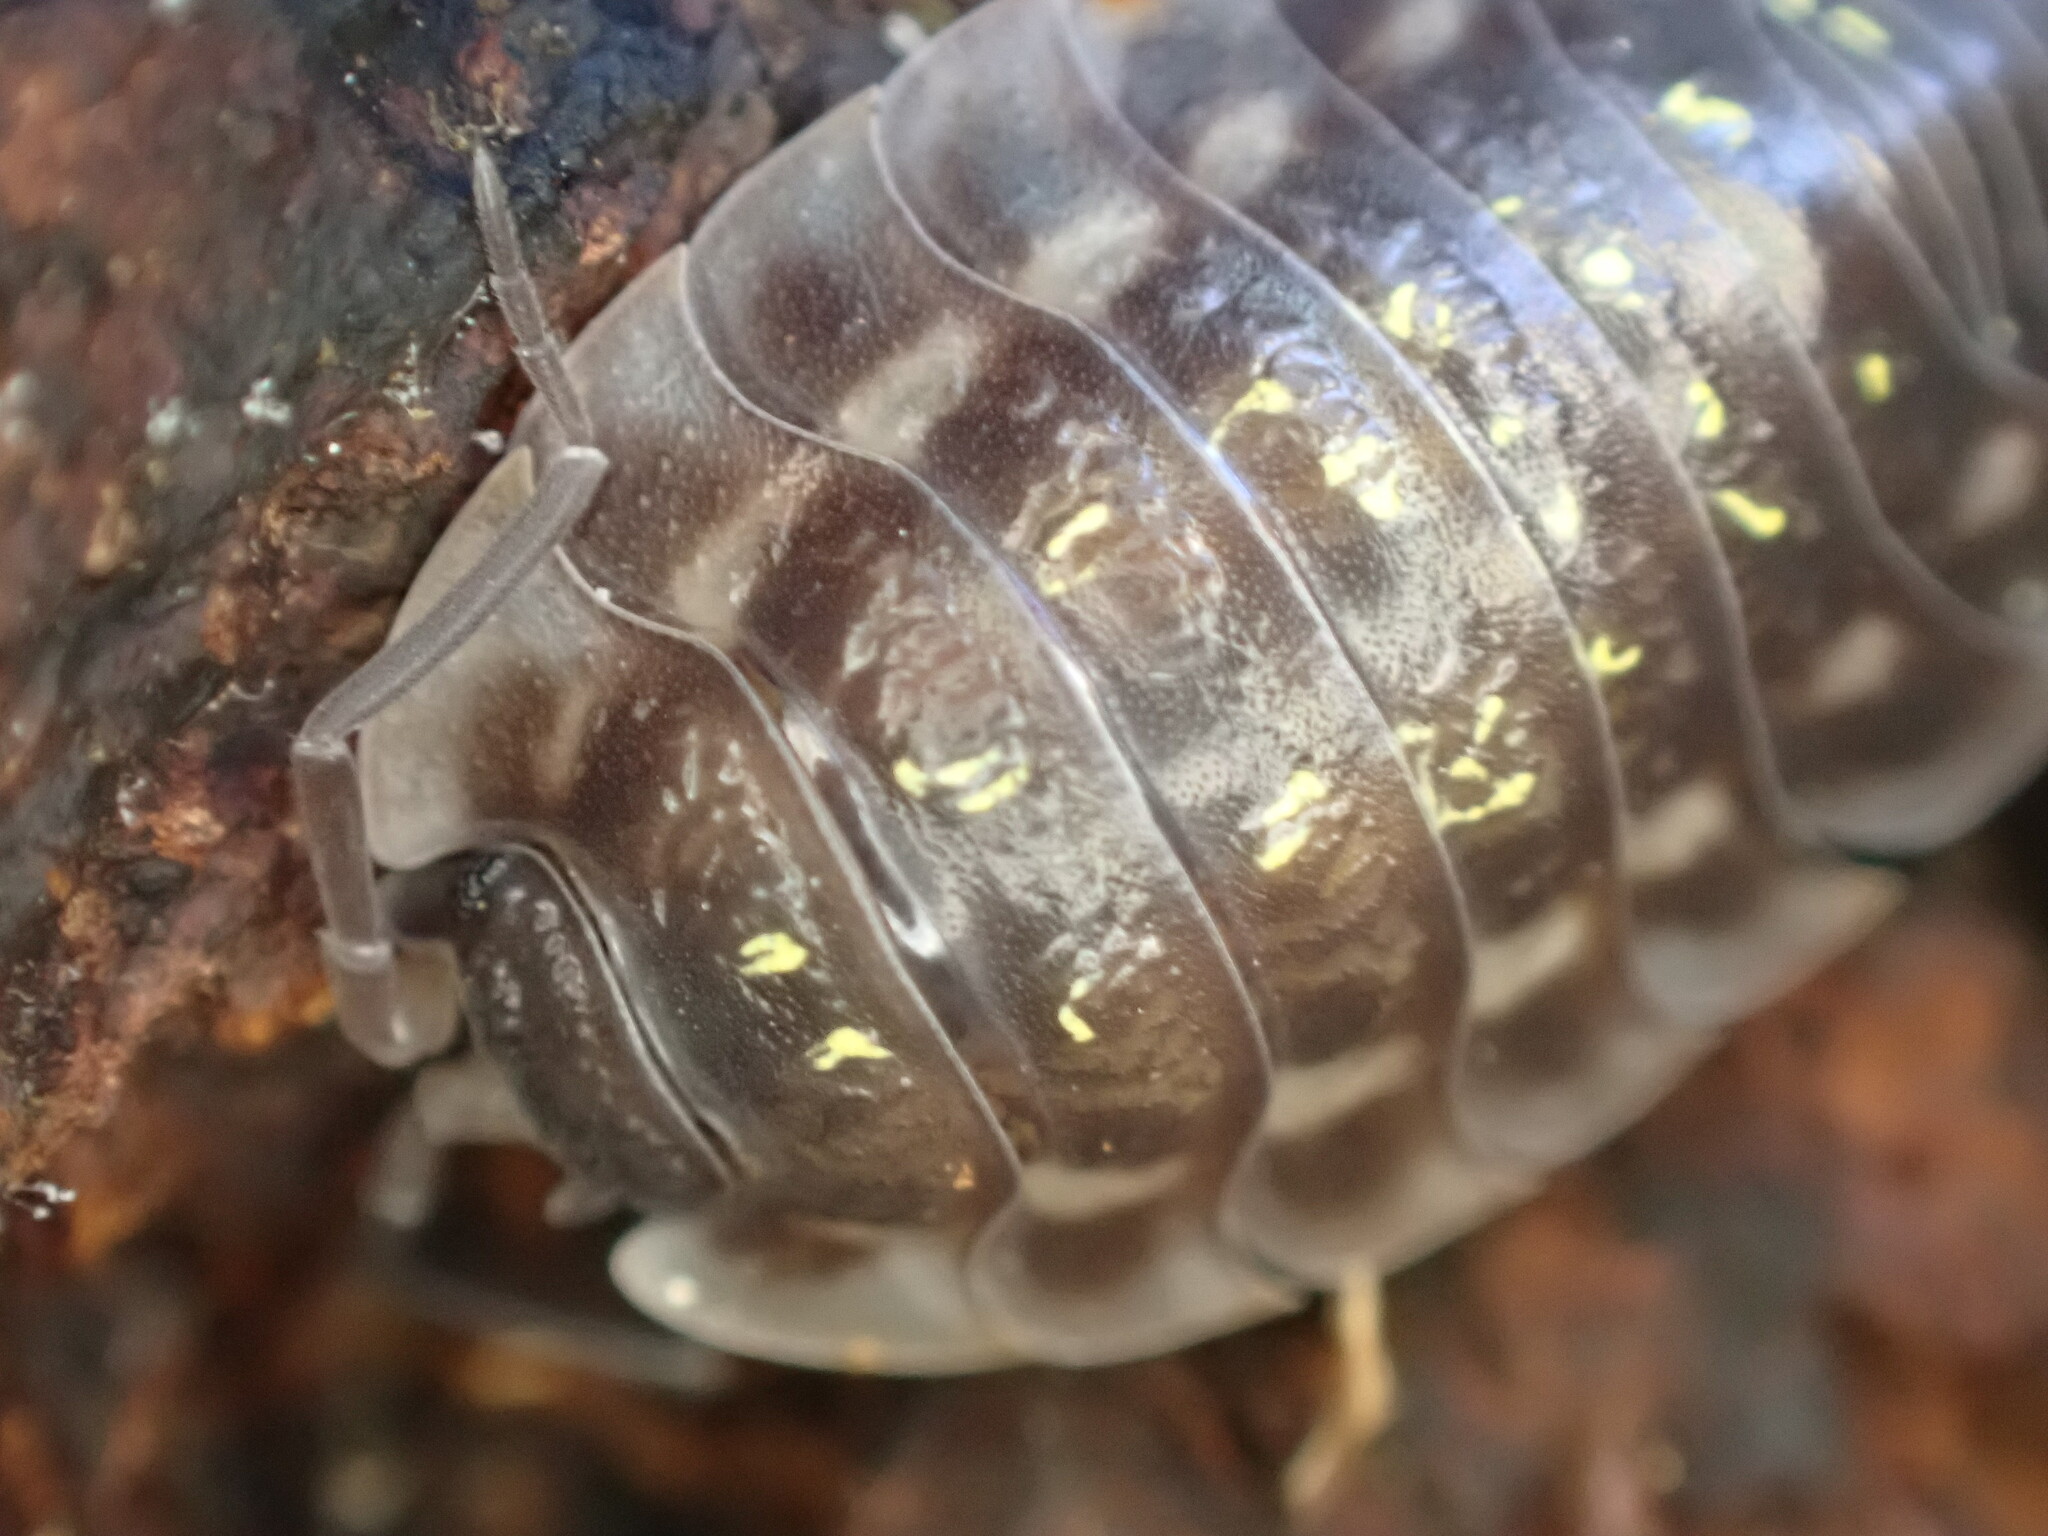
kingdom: Animalia
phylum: Arthropoda
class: Malacostraca
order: Isopoda
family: Oniscidae
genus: Oniscus
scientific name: Oniscus asellus
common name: Common shiny woodlouse
